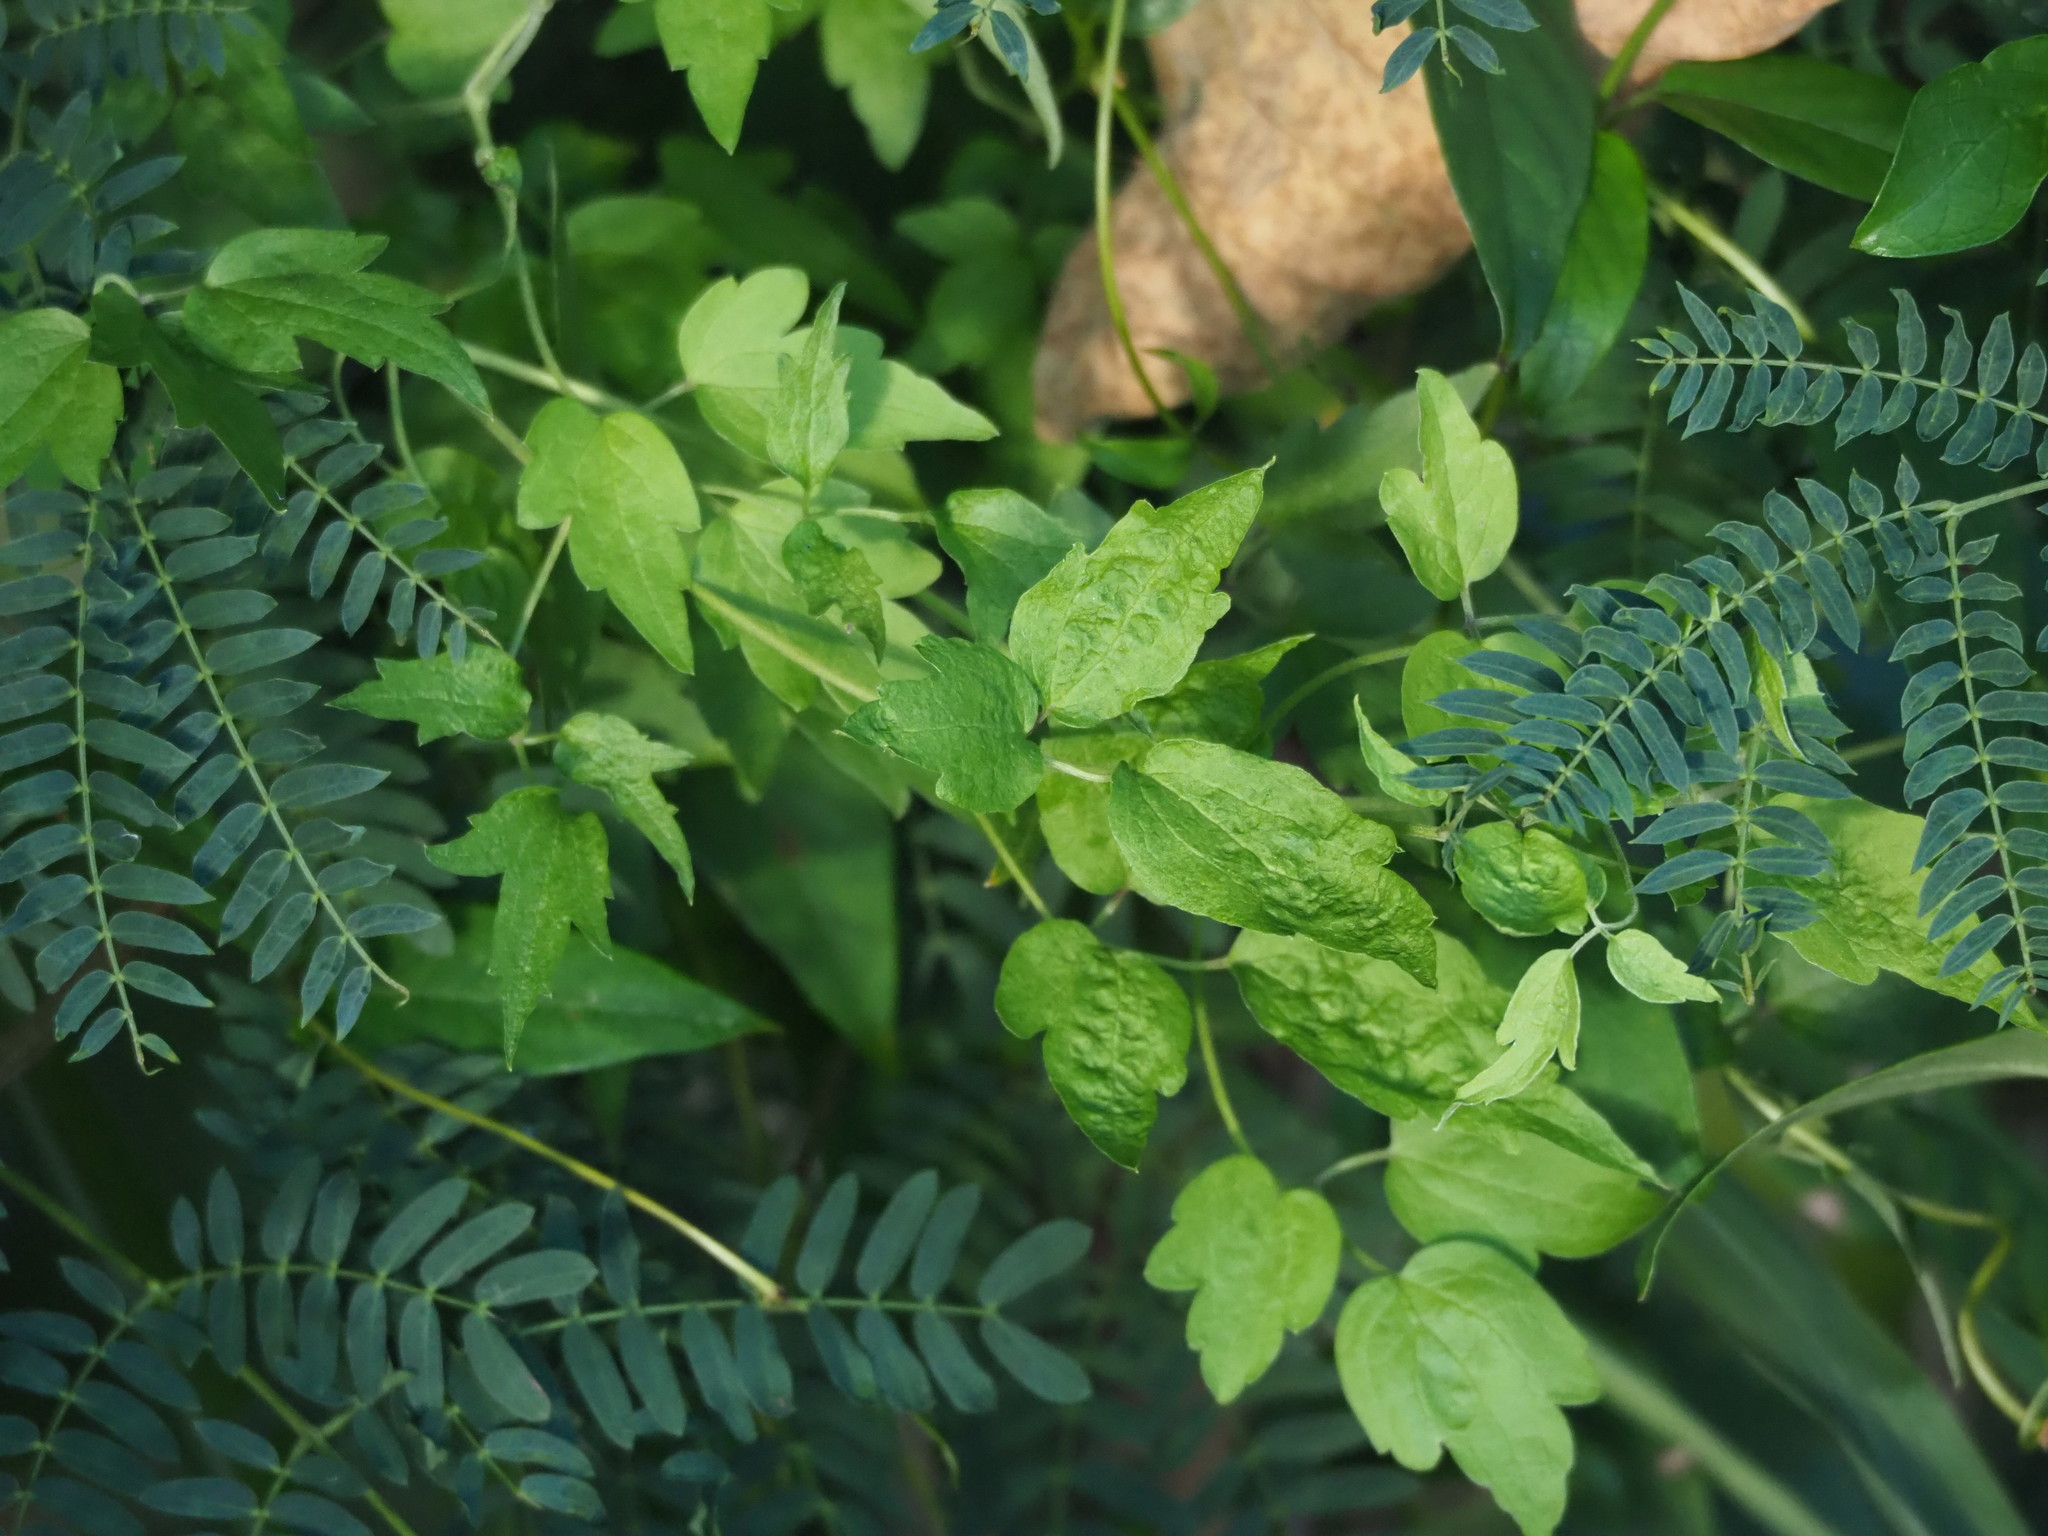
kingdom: Plantae
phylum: Tracheophyta
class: Magnoliopsida
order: Ranunculales
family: Ranunculaceae
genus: Clematis
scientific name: Clematis grata
